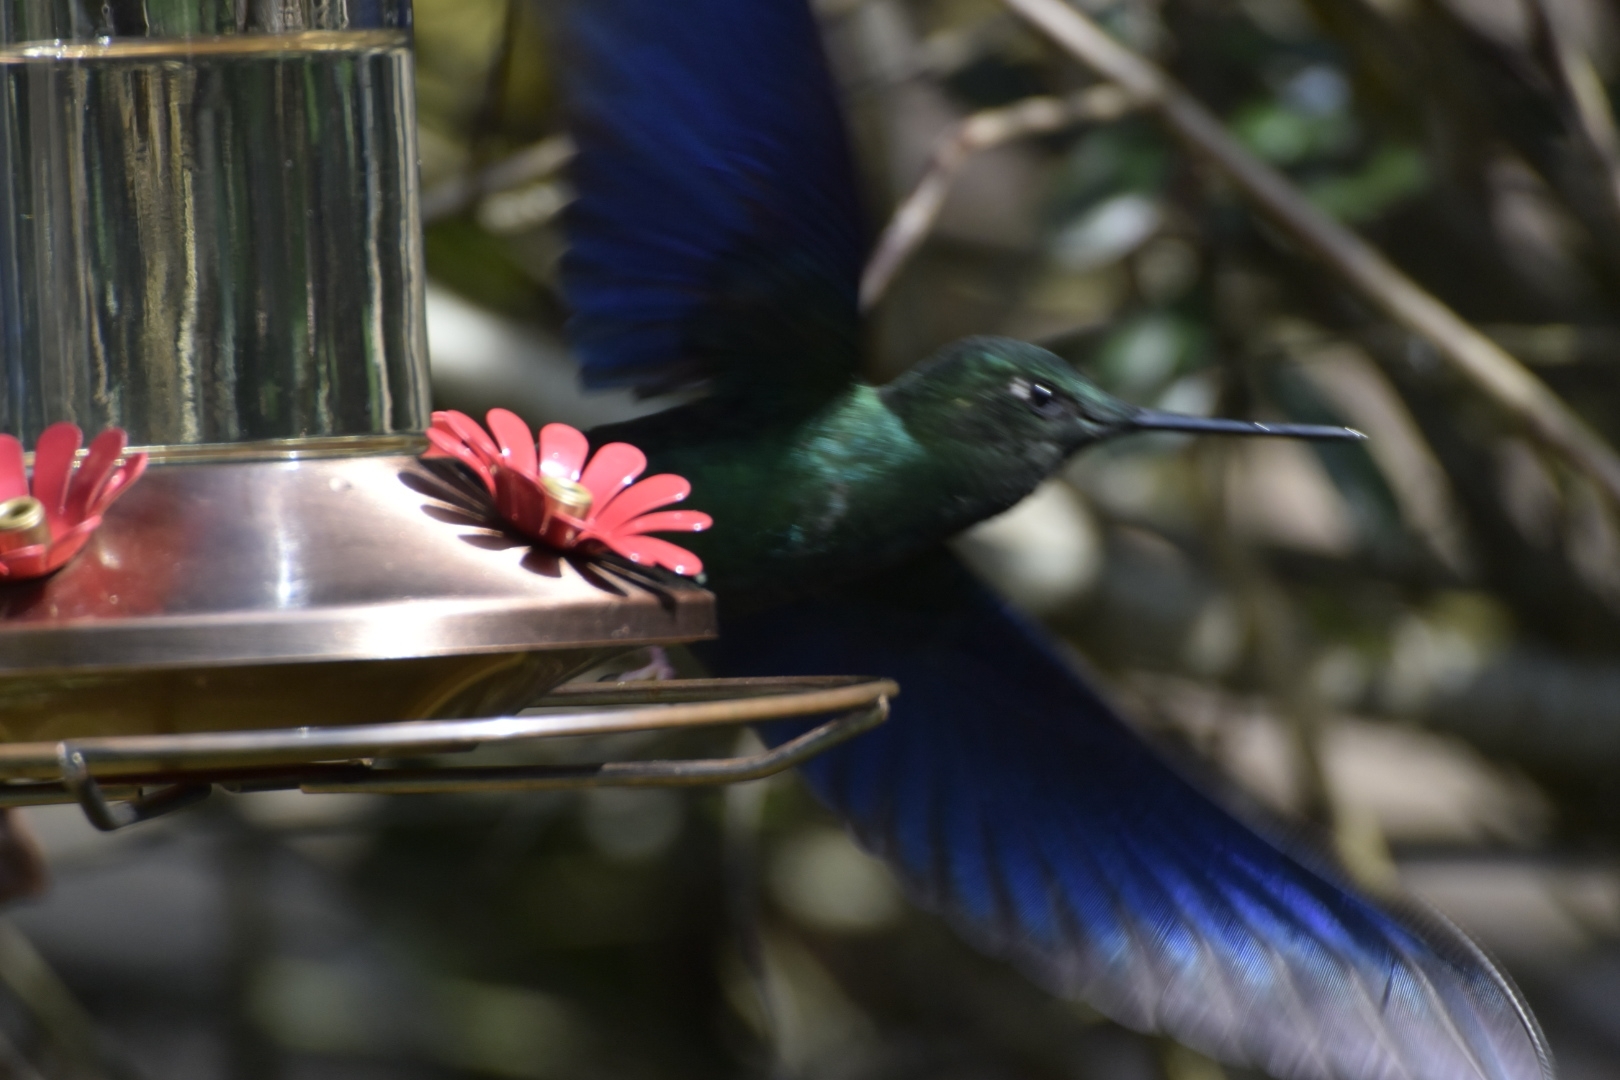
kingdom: Animalia
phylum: Chordata
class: Aves
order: Apodiformes
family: Trochilidae
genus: Pterophanes
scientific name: Pterophanes cyanopterus
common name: Great sapphirewing
